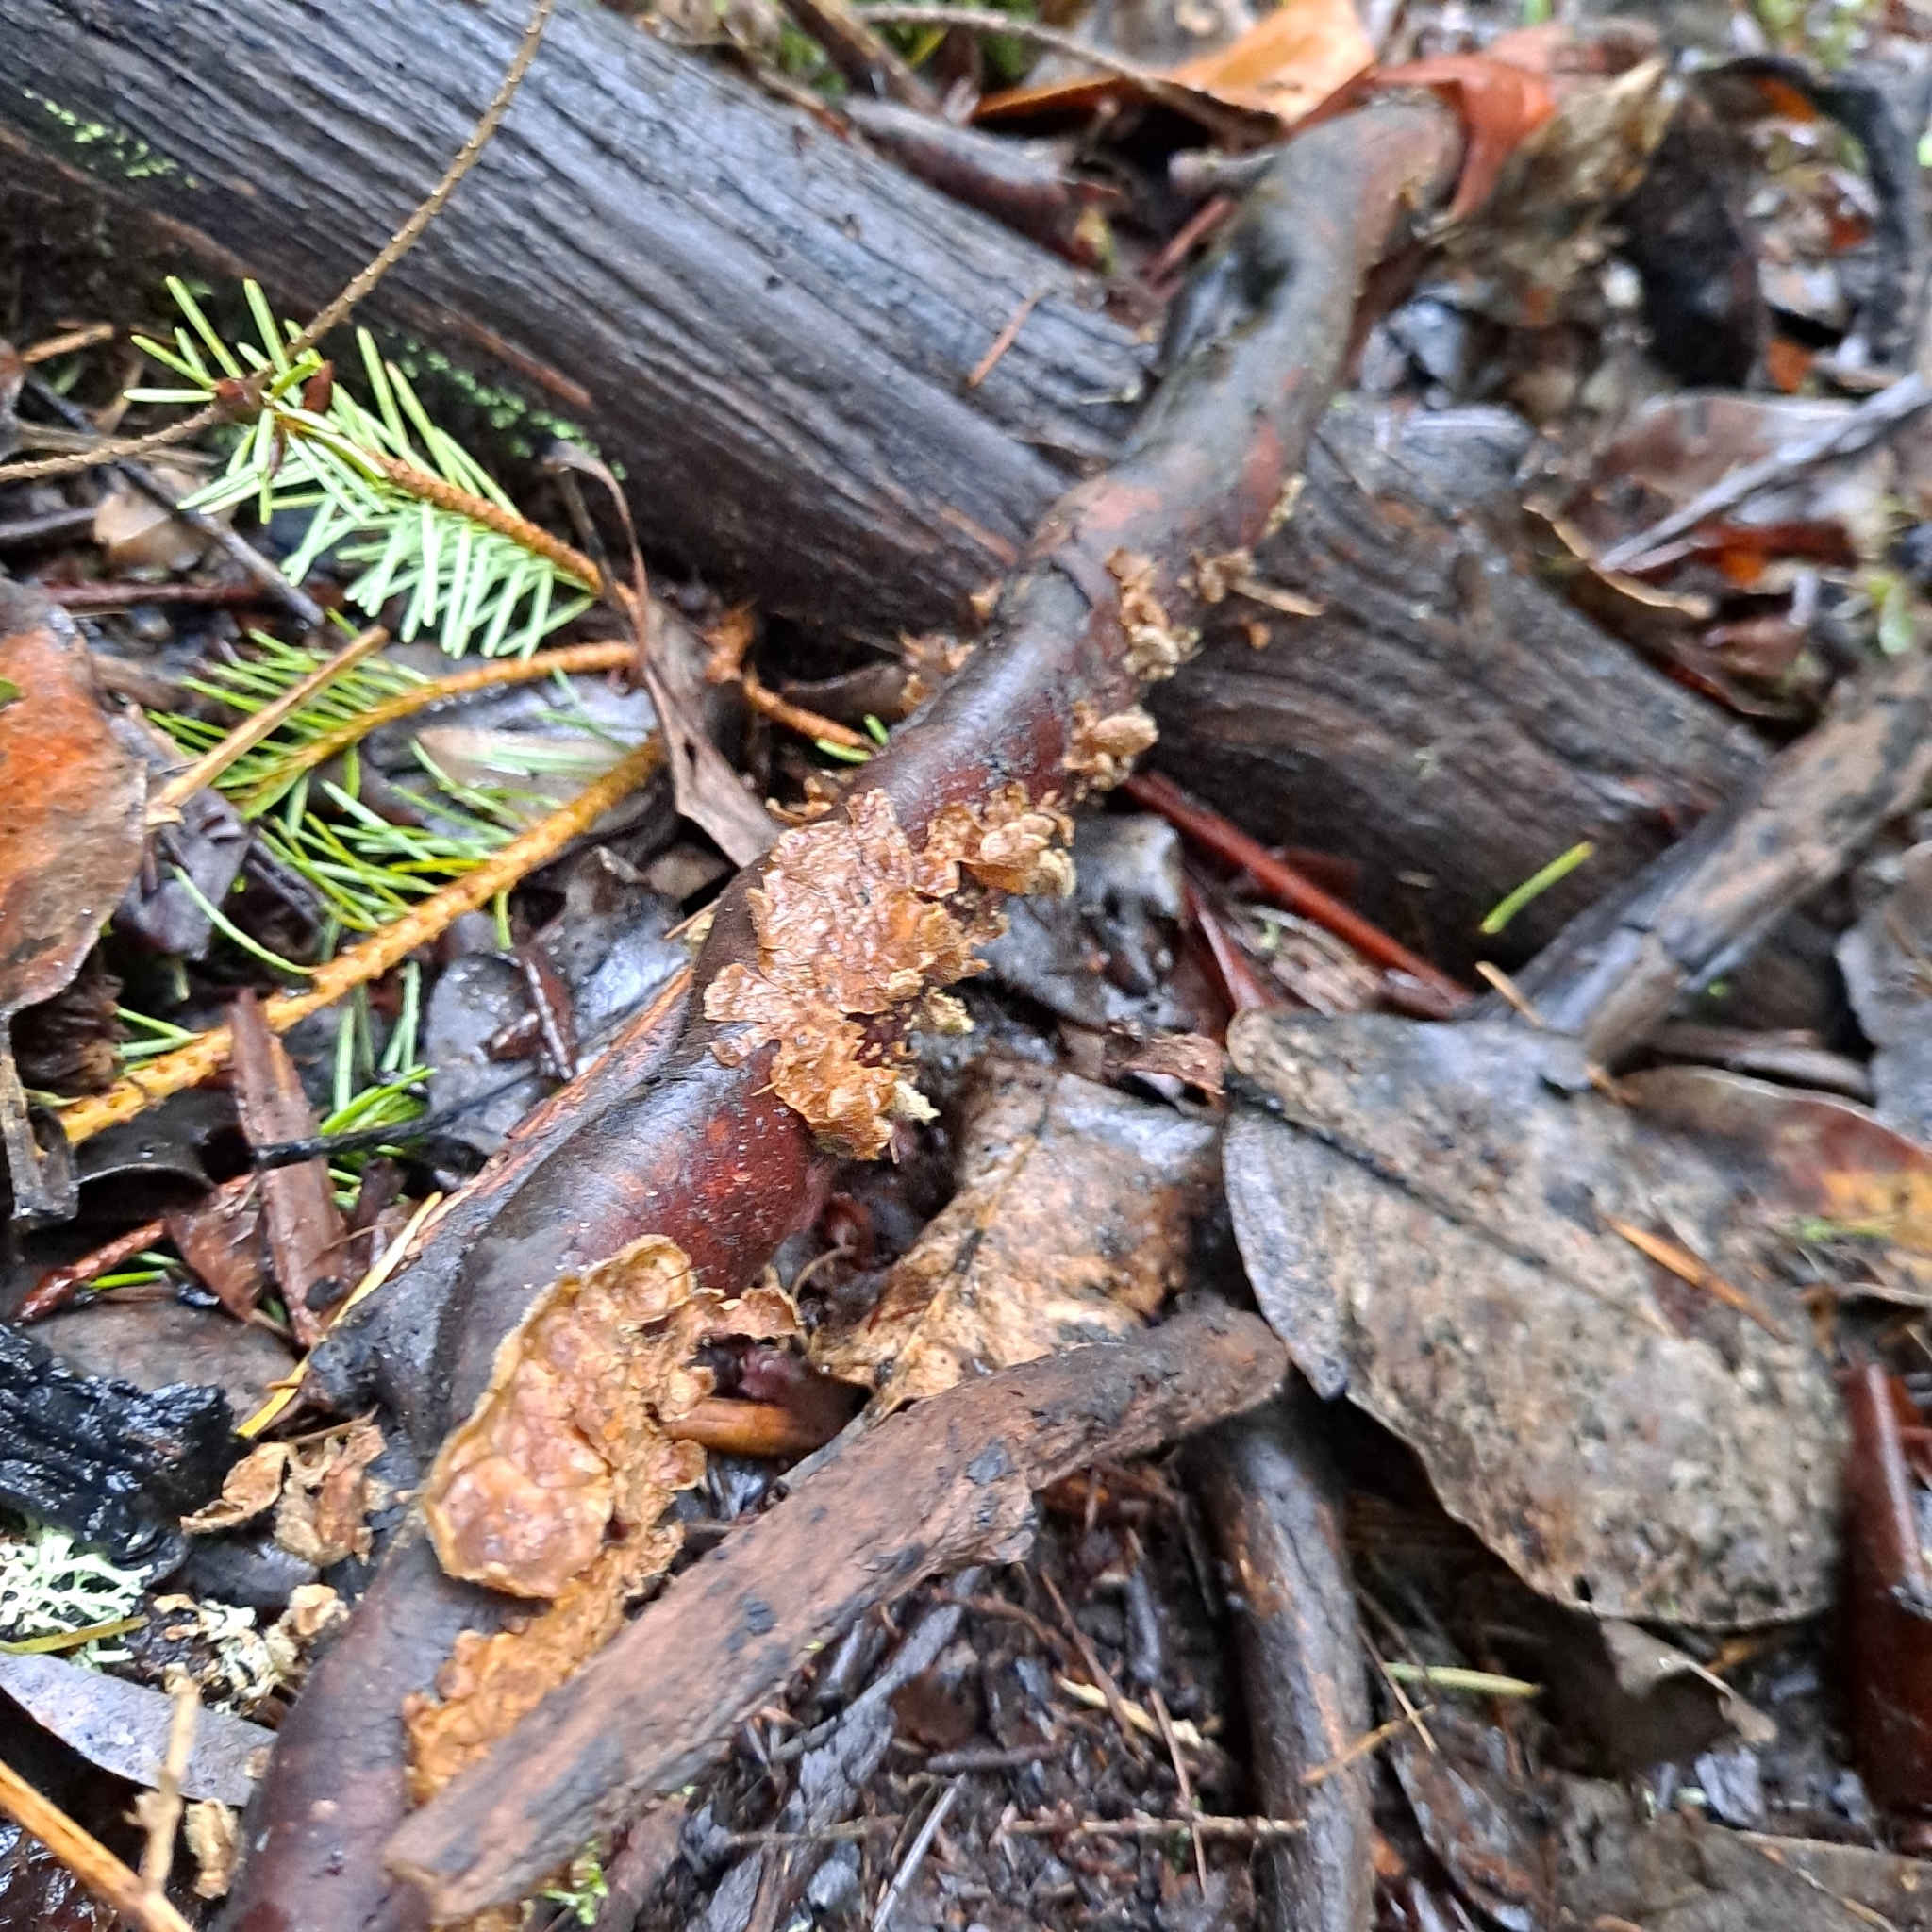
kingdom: Fungi
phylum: Basidiomycota
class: Agaricomycetes
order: Russulales
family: Stereaceae
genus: Stereum
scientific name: Stereum ochraceoflavum
